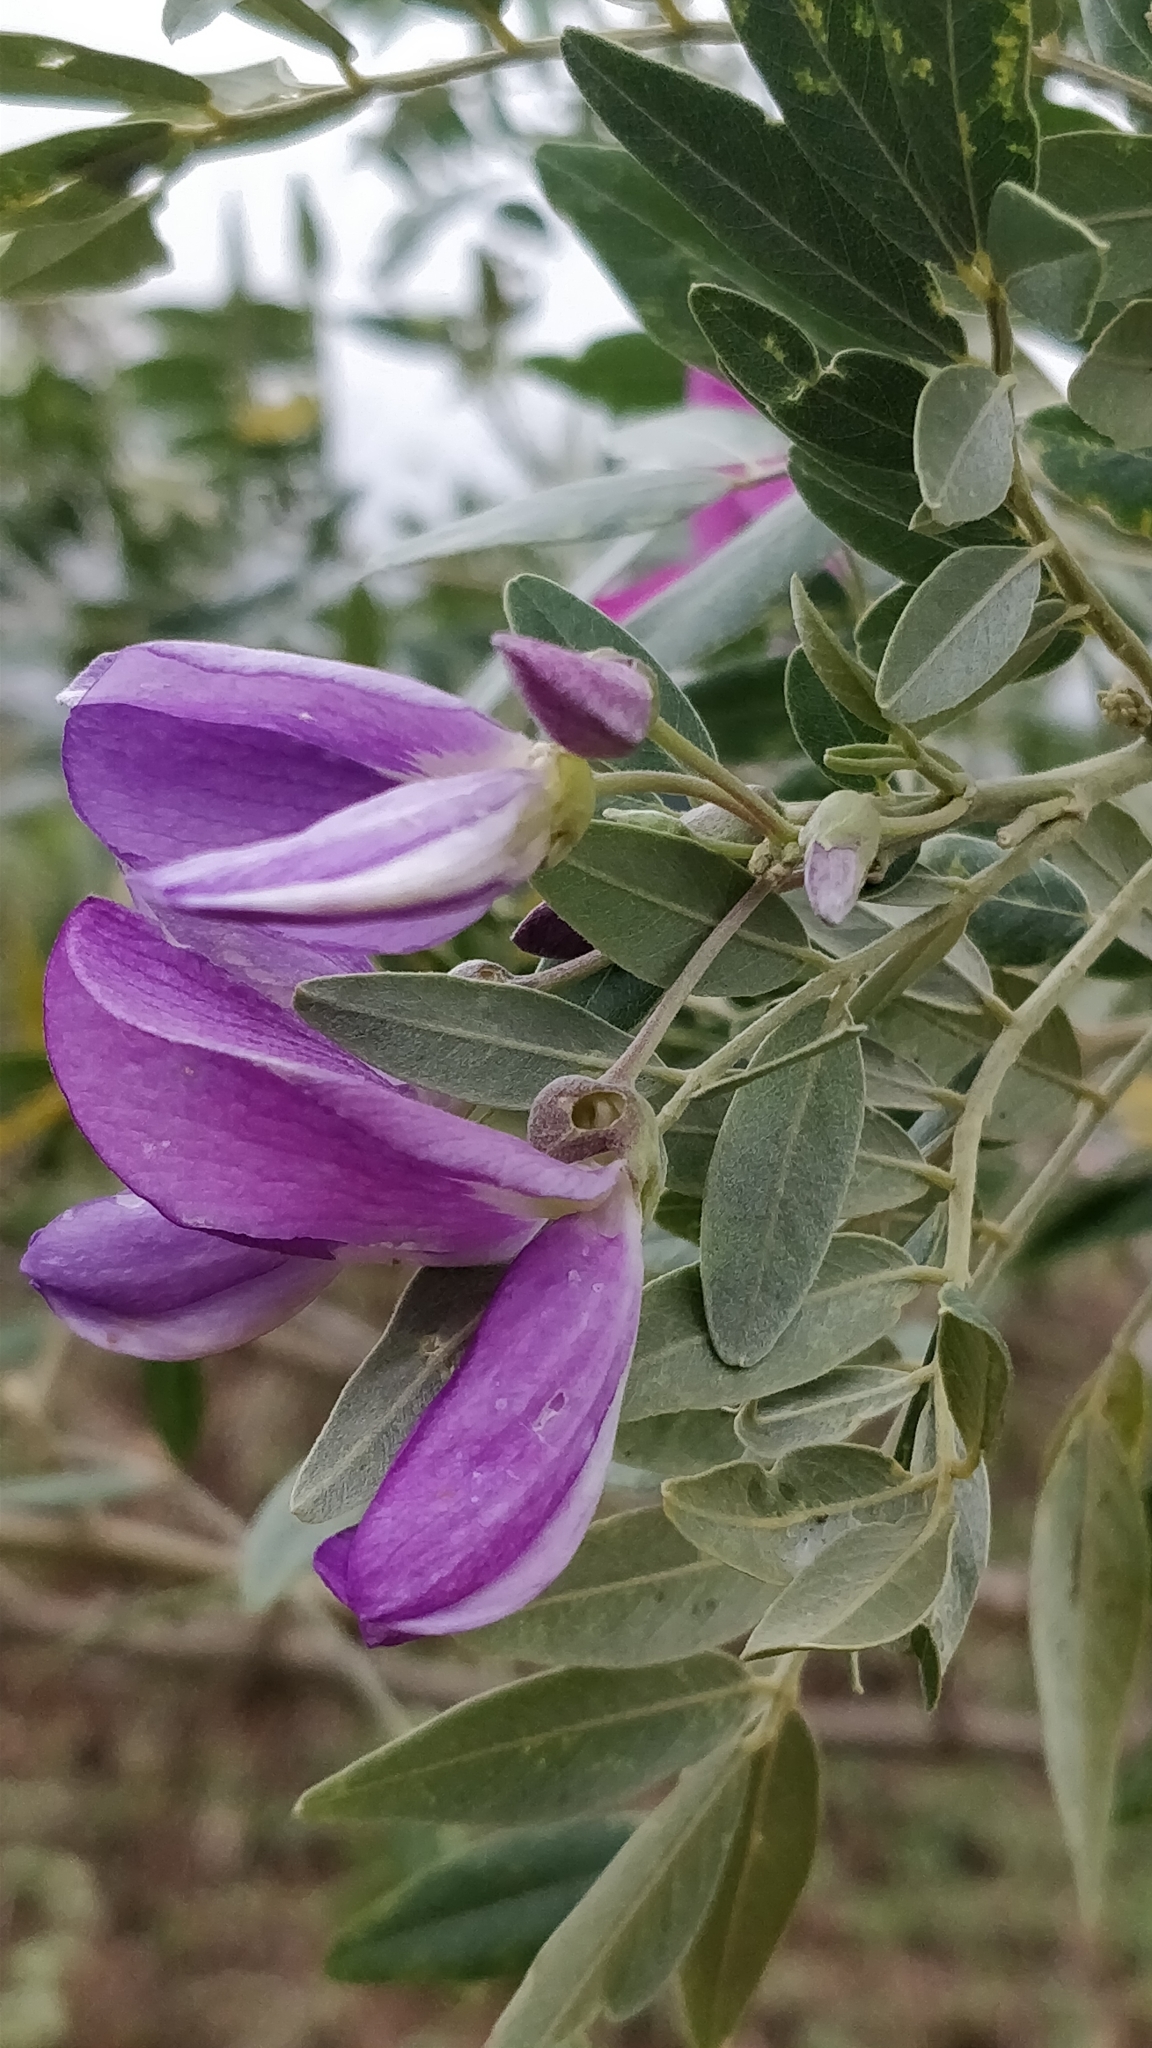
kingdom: Plantae
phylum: Tracheophyta
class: Magnoliopsida
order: Fabales
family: Fabaceae
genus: Mundulea
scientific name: Mundulea sericea
